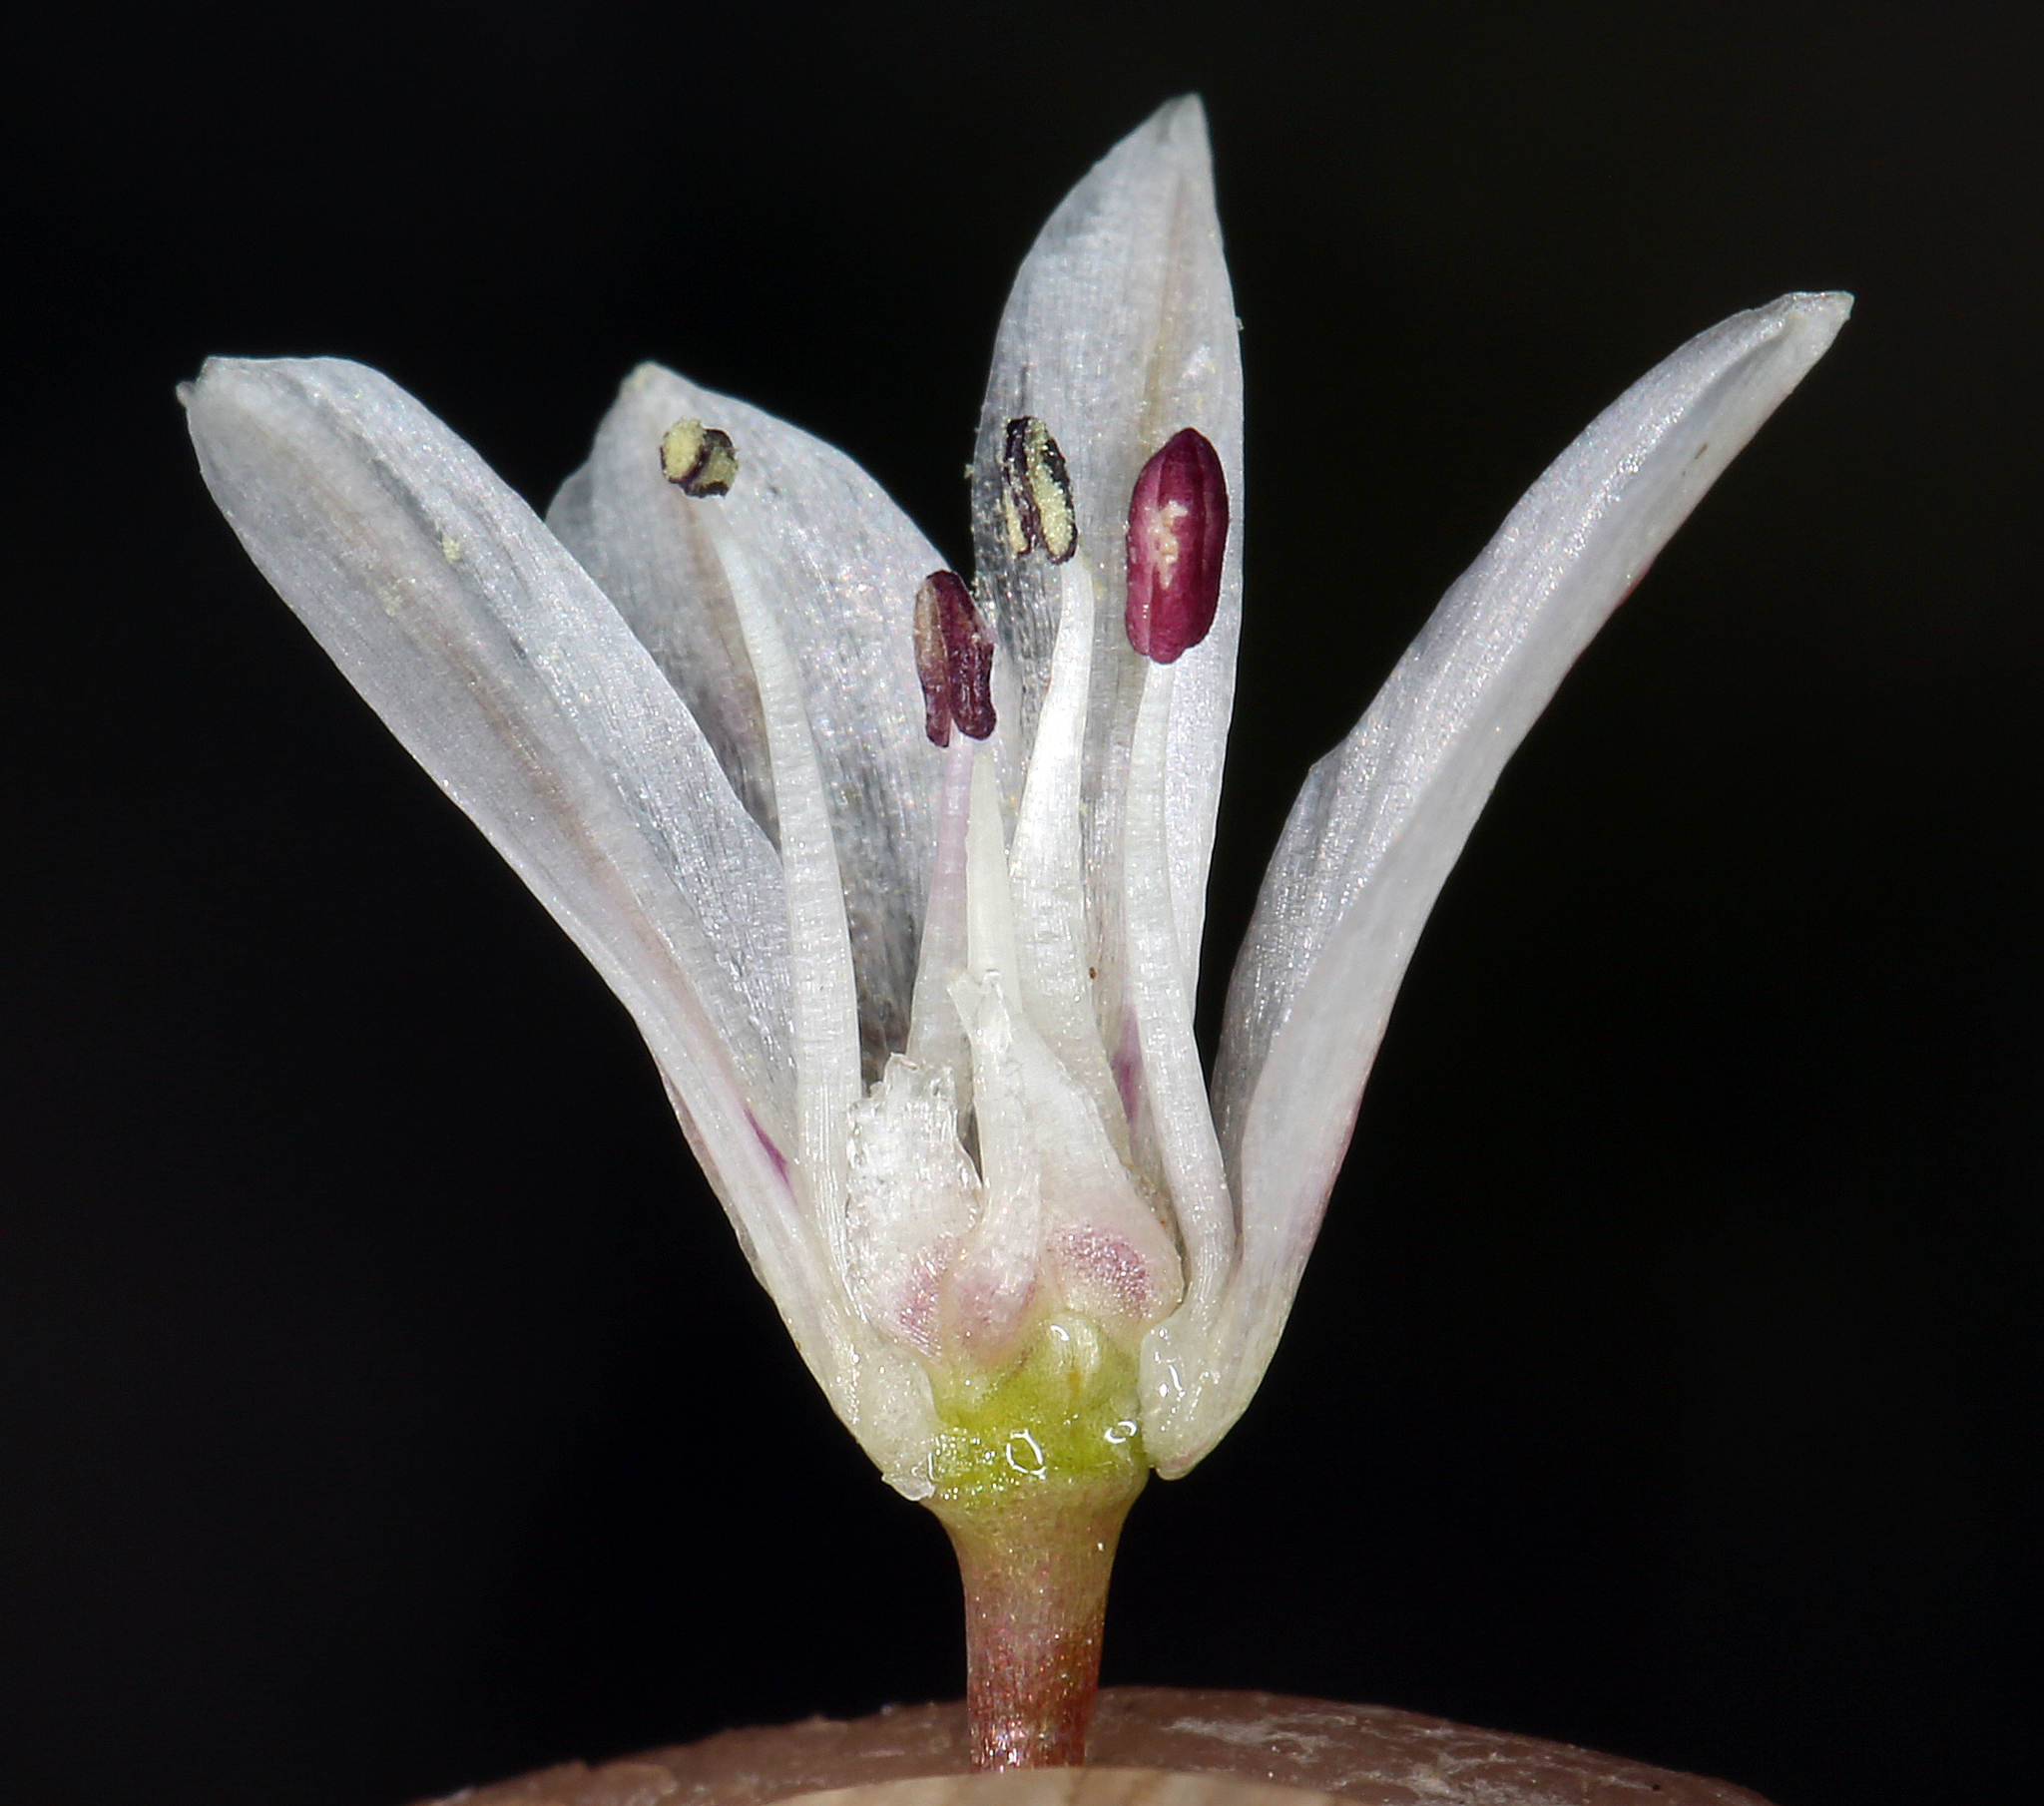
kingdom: Plantae
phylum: Tracheophyta
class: Liliopsida
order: Asparagales
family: Amaryllidaceae
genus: Allium
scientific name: Allium atrorubens
